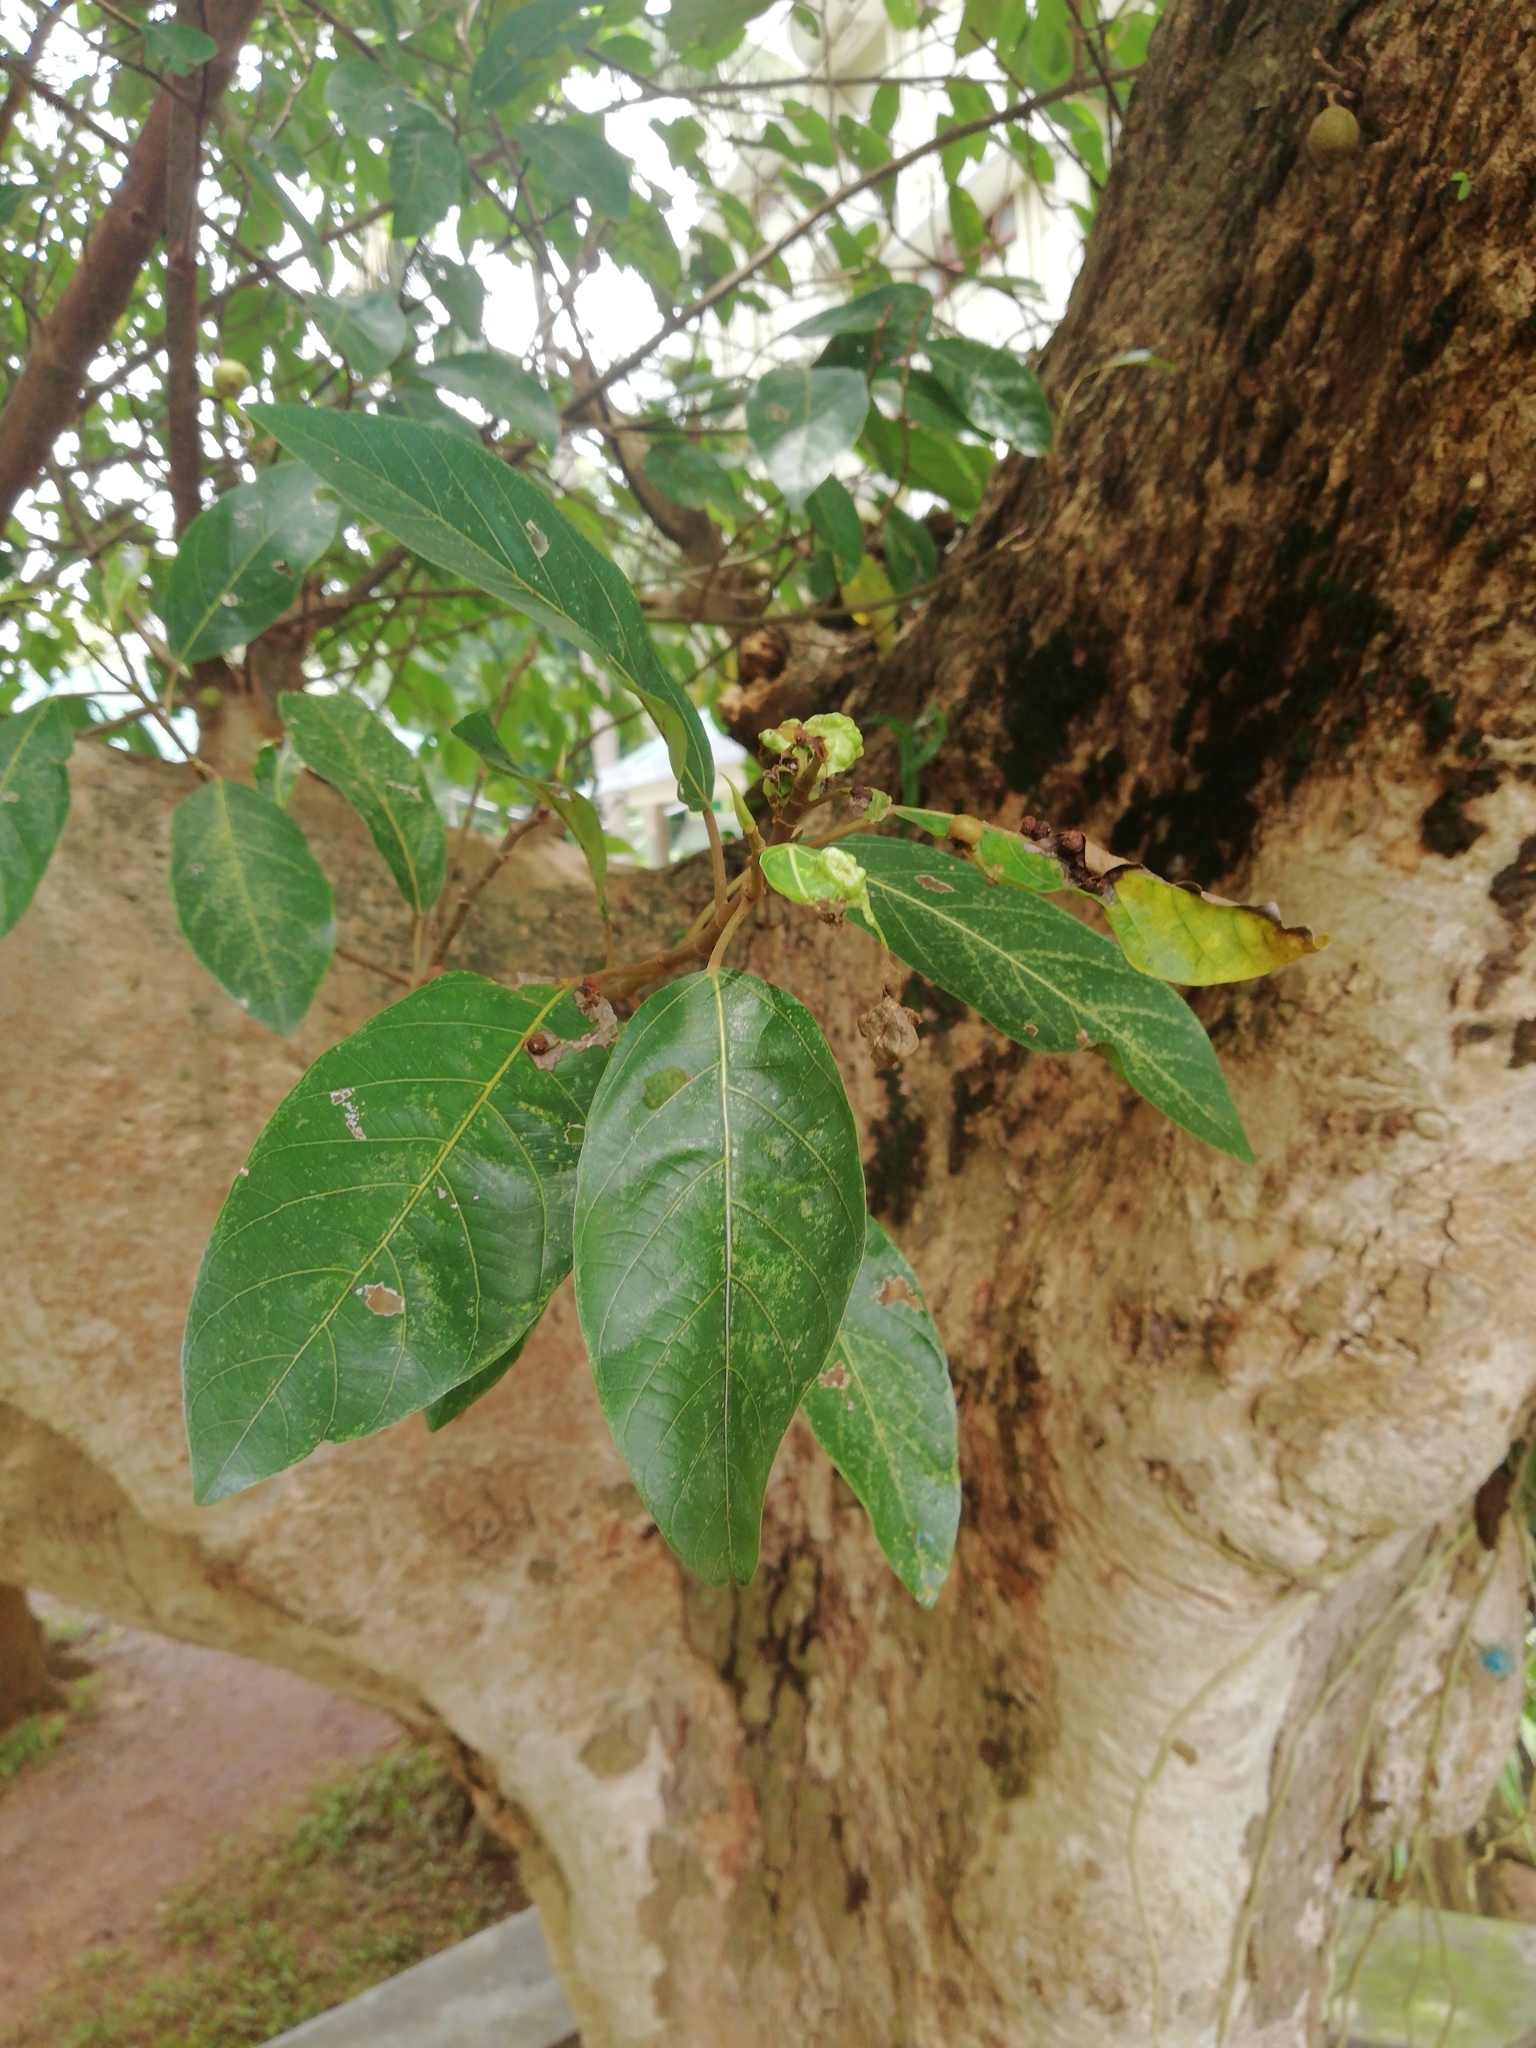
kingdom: Plantae
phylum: Tracheophyta
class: Magnoliopsida
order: Rosales
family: Moraceae
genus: Ficus
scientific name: Ficus racemosa
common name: Cluster fig
